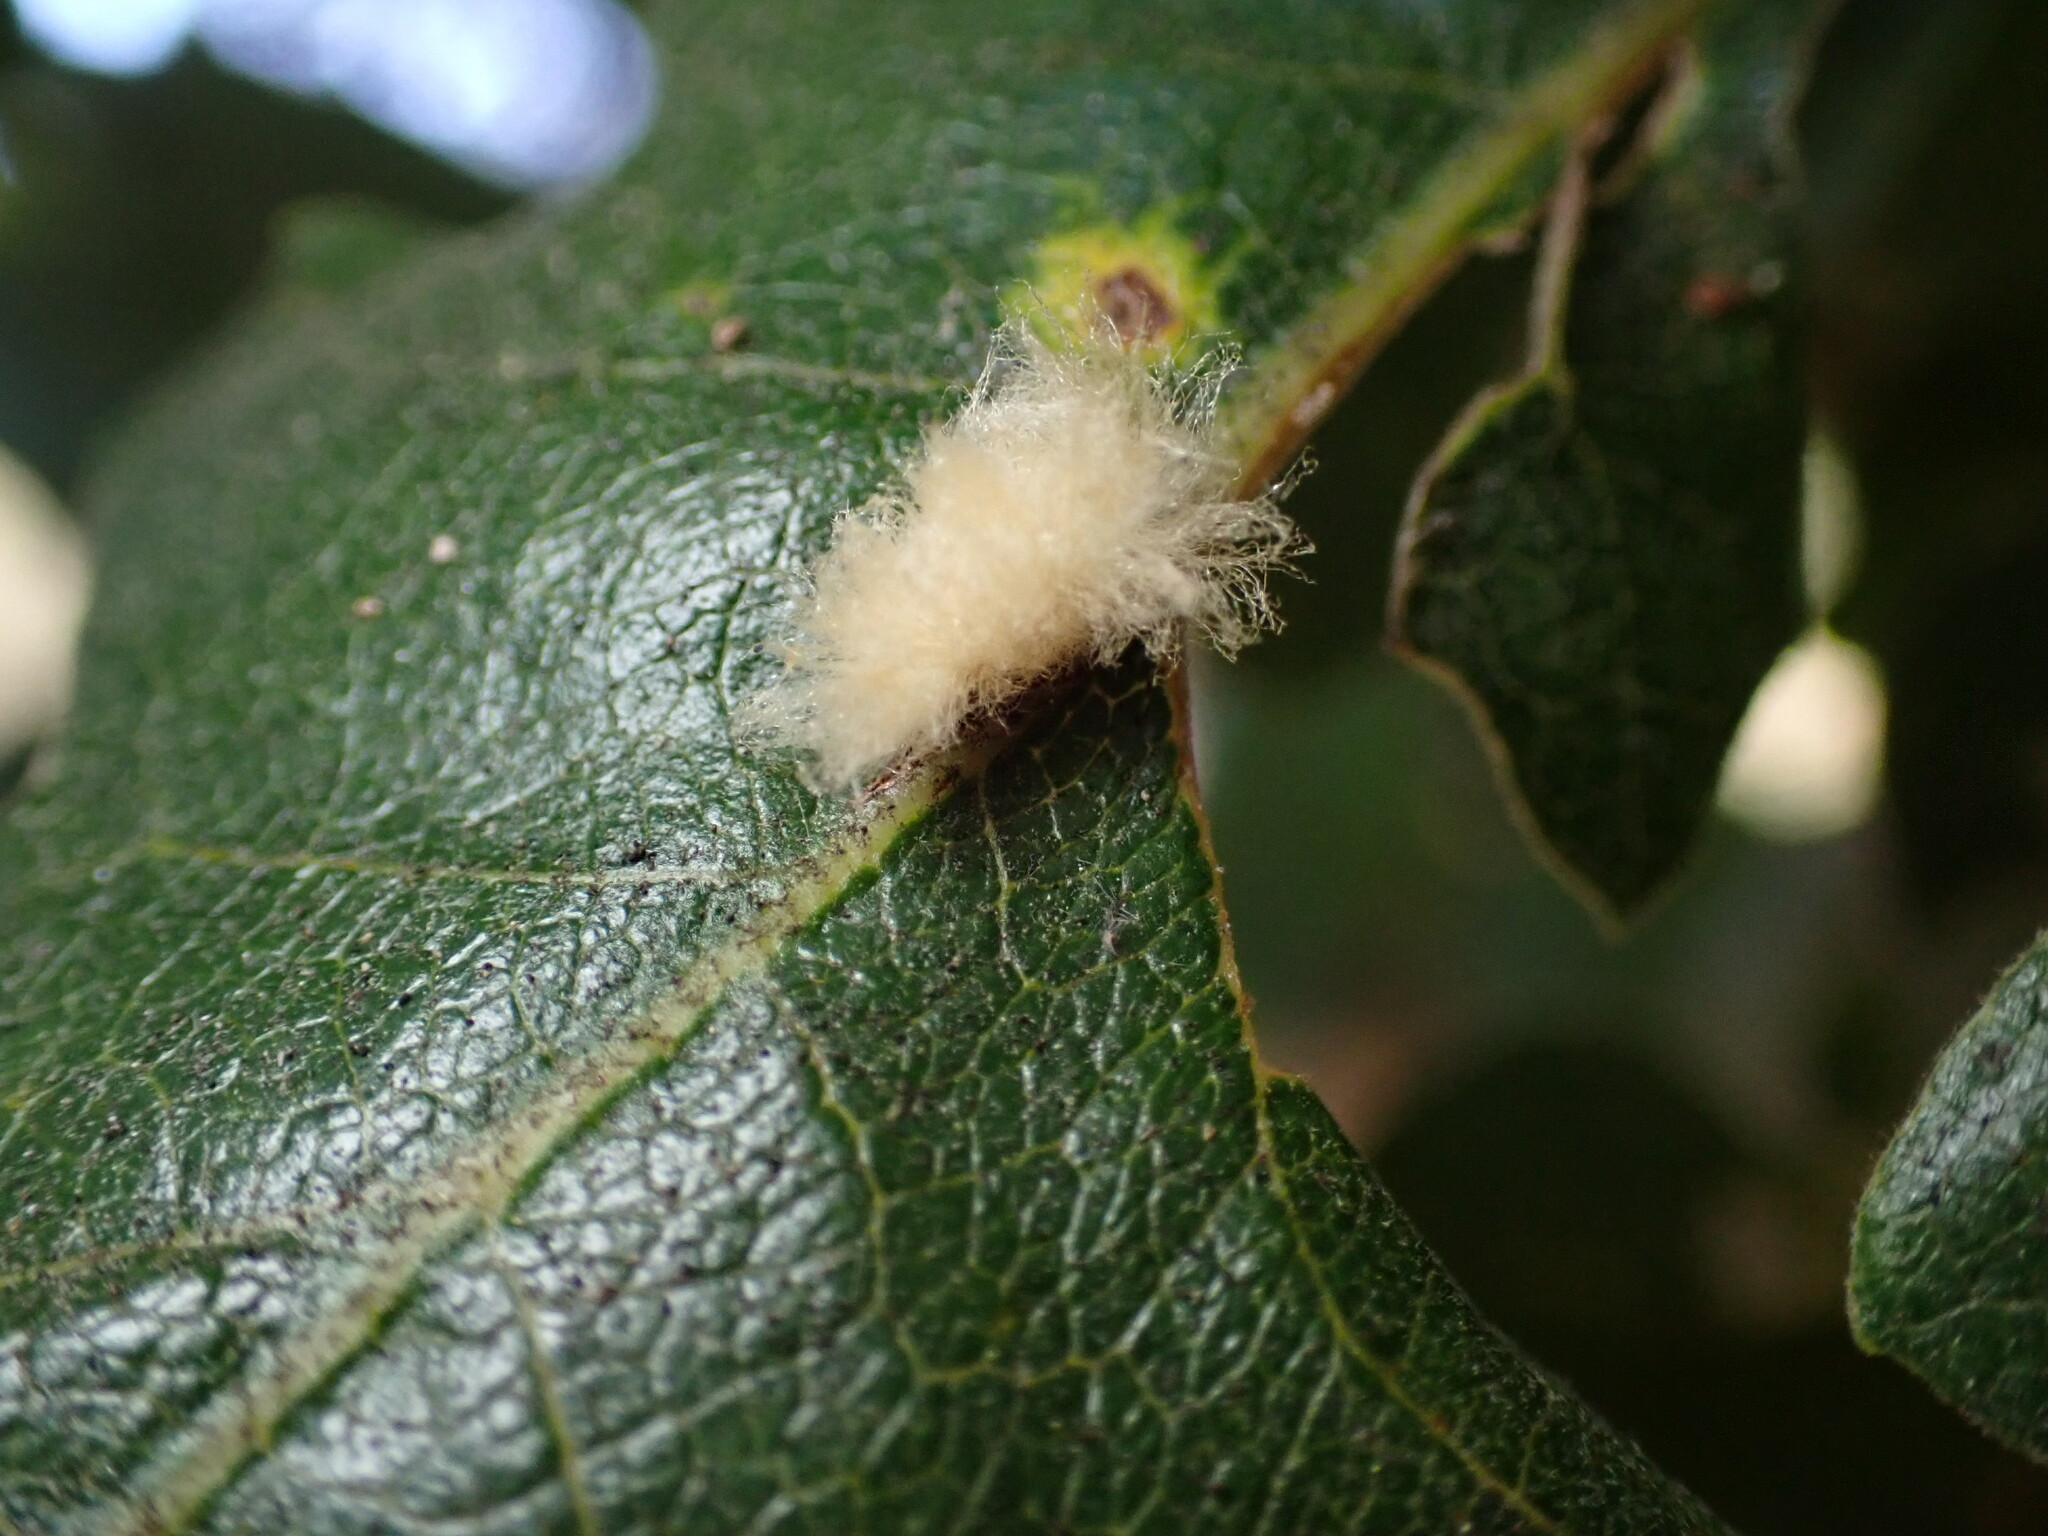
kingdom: Animalia
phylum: Arthropoda
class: Insecta
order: Hymenoptera
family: Cynipidae
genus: Andricus
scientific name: Andricus Druon fullawayi
